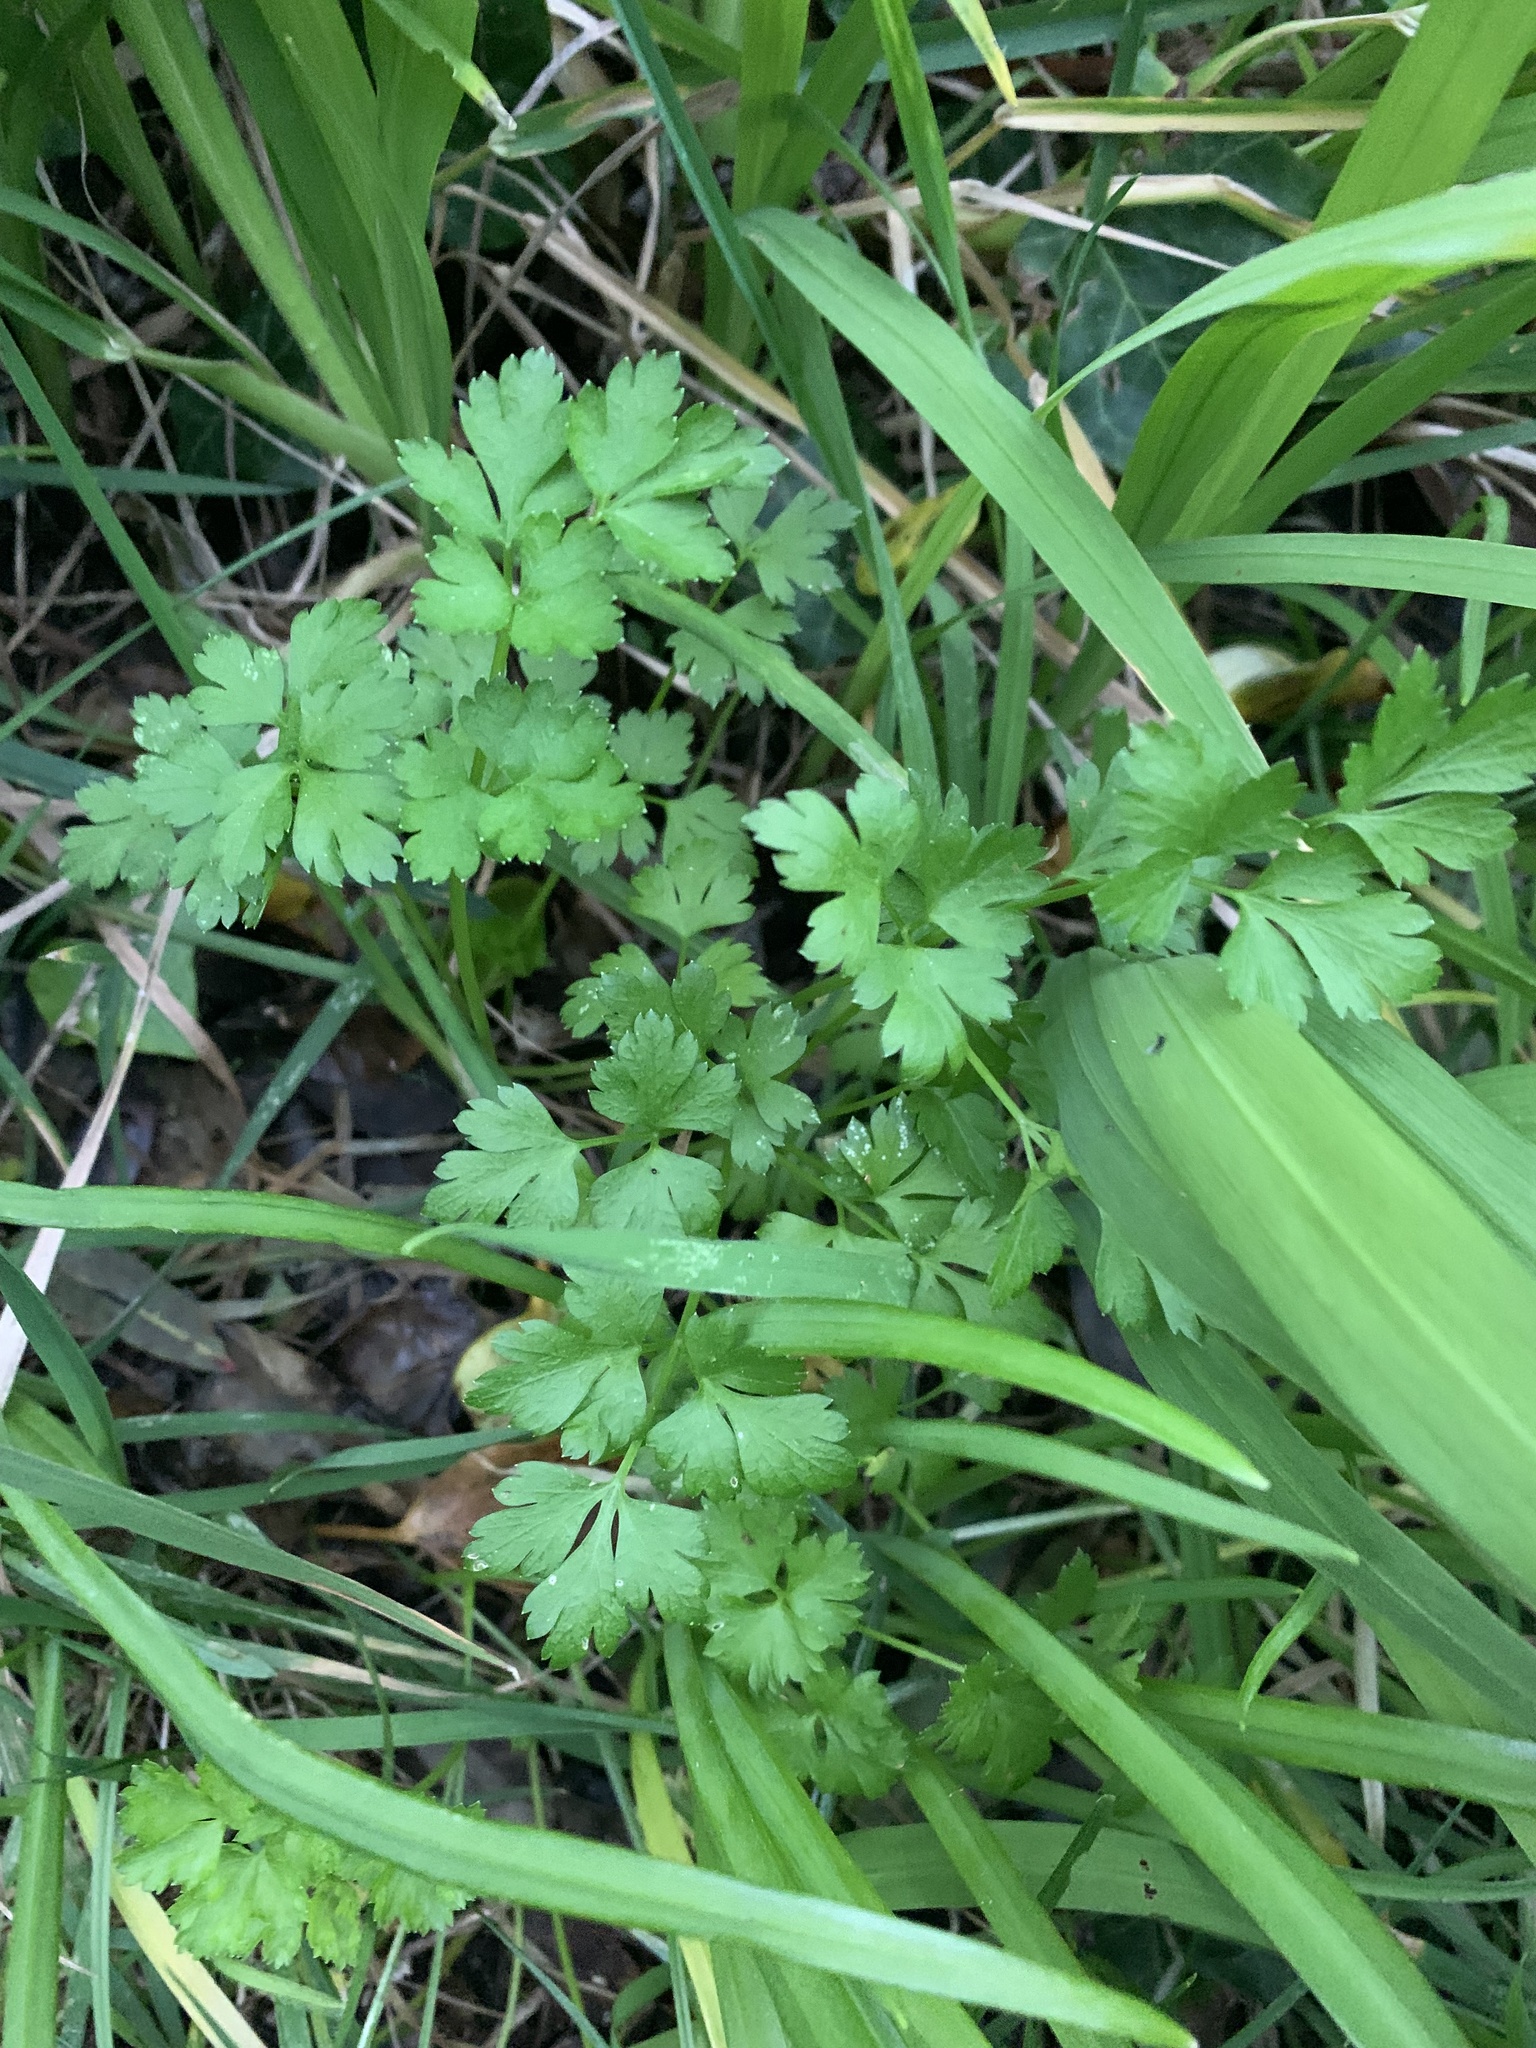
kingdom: Plantae
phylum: Tracheophyta
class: Magnoliopsida
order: Apiales
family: Apiaceae
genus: Petroselinum
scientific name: Petroselinum crispum
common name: Parsley
